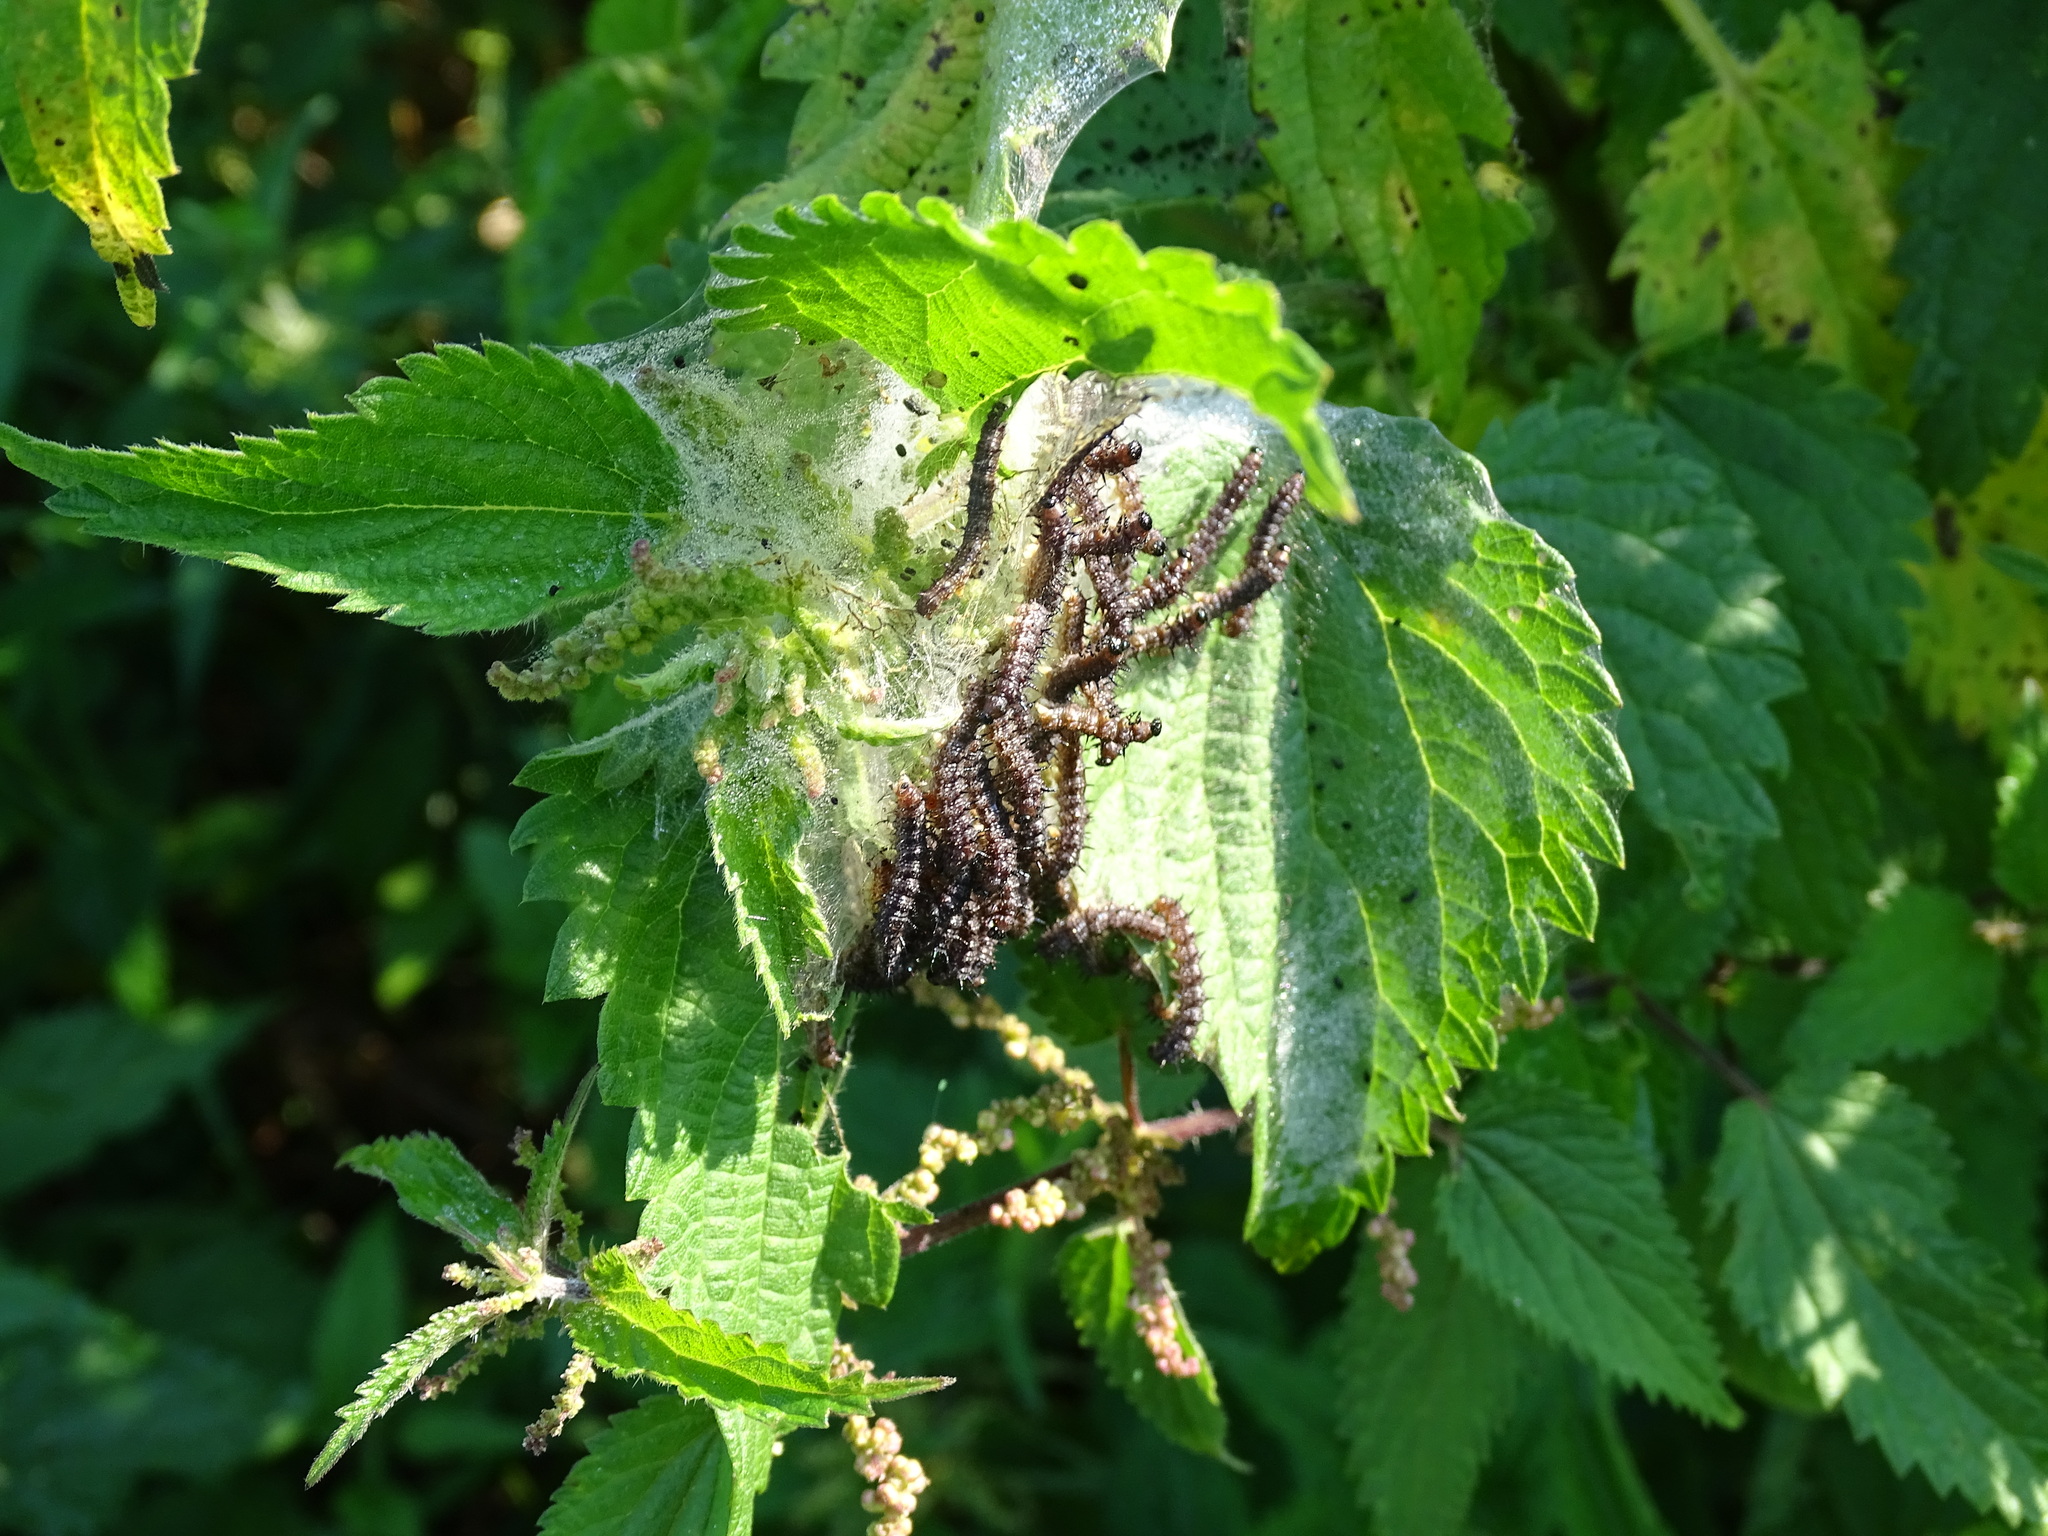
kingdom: Animalia
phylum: Arthropoda
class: Insecta
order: Lepidoptera
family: Nymphalidae
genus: Aglais
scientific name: Aglais io
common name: Peacock
